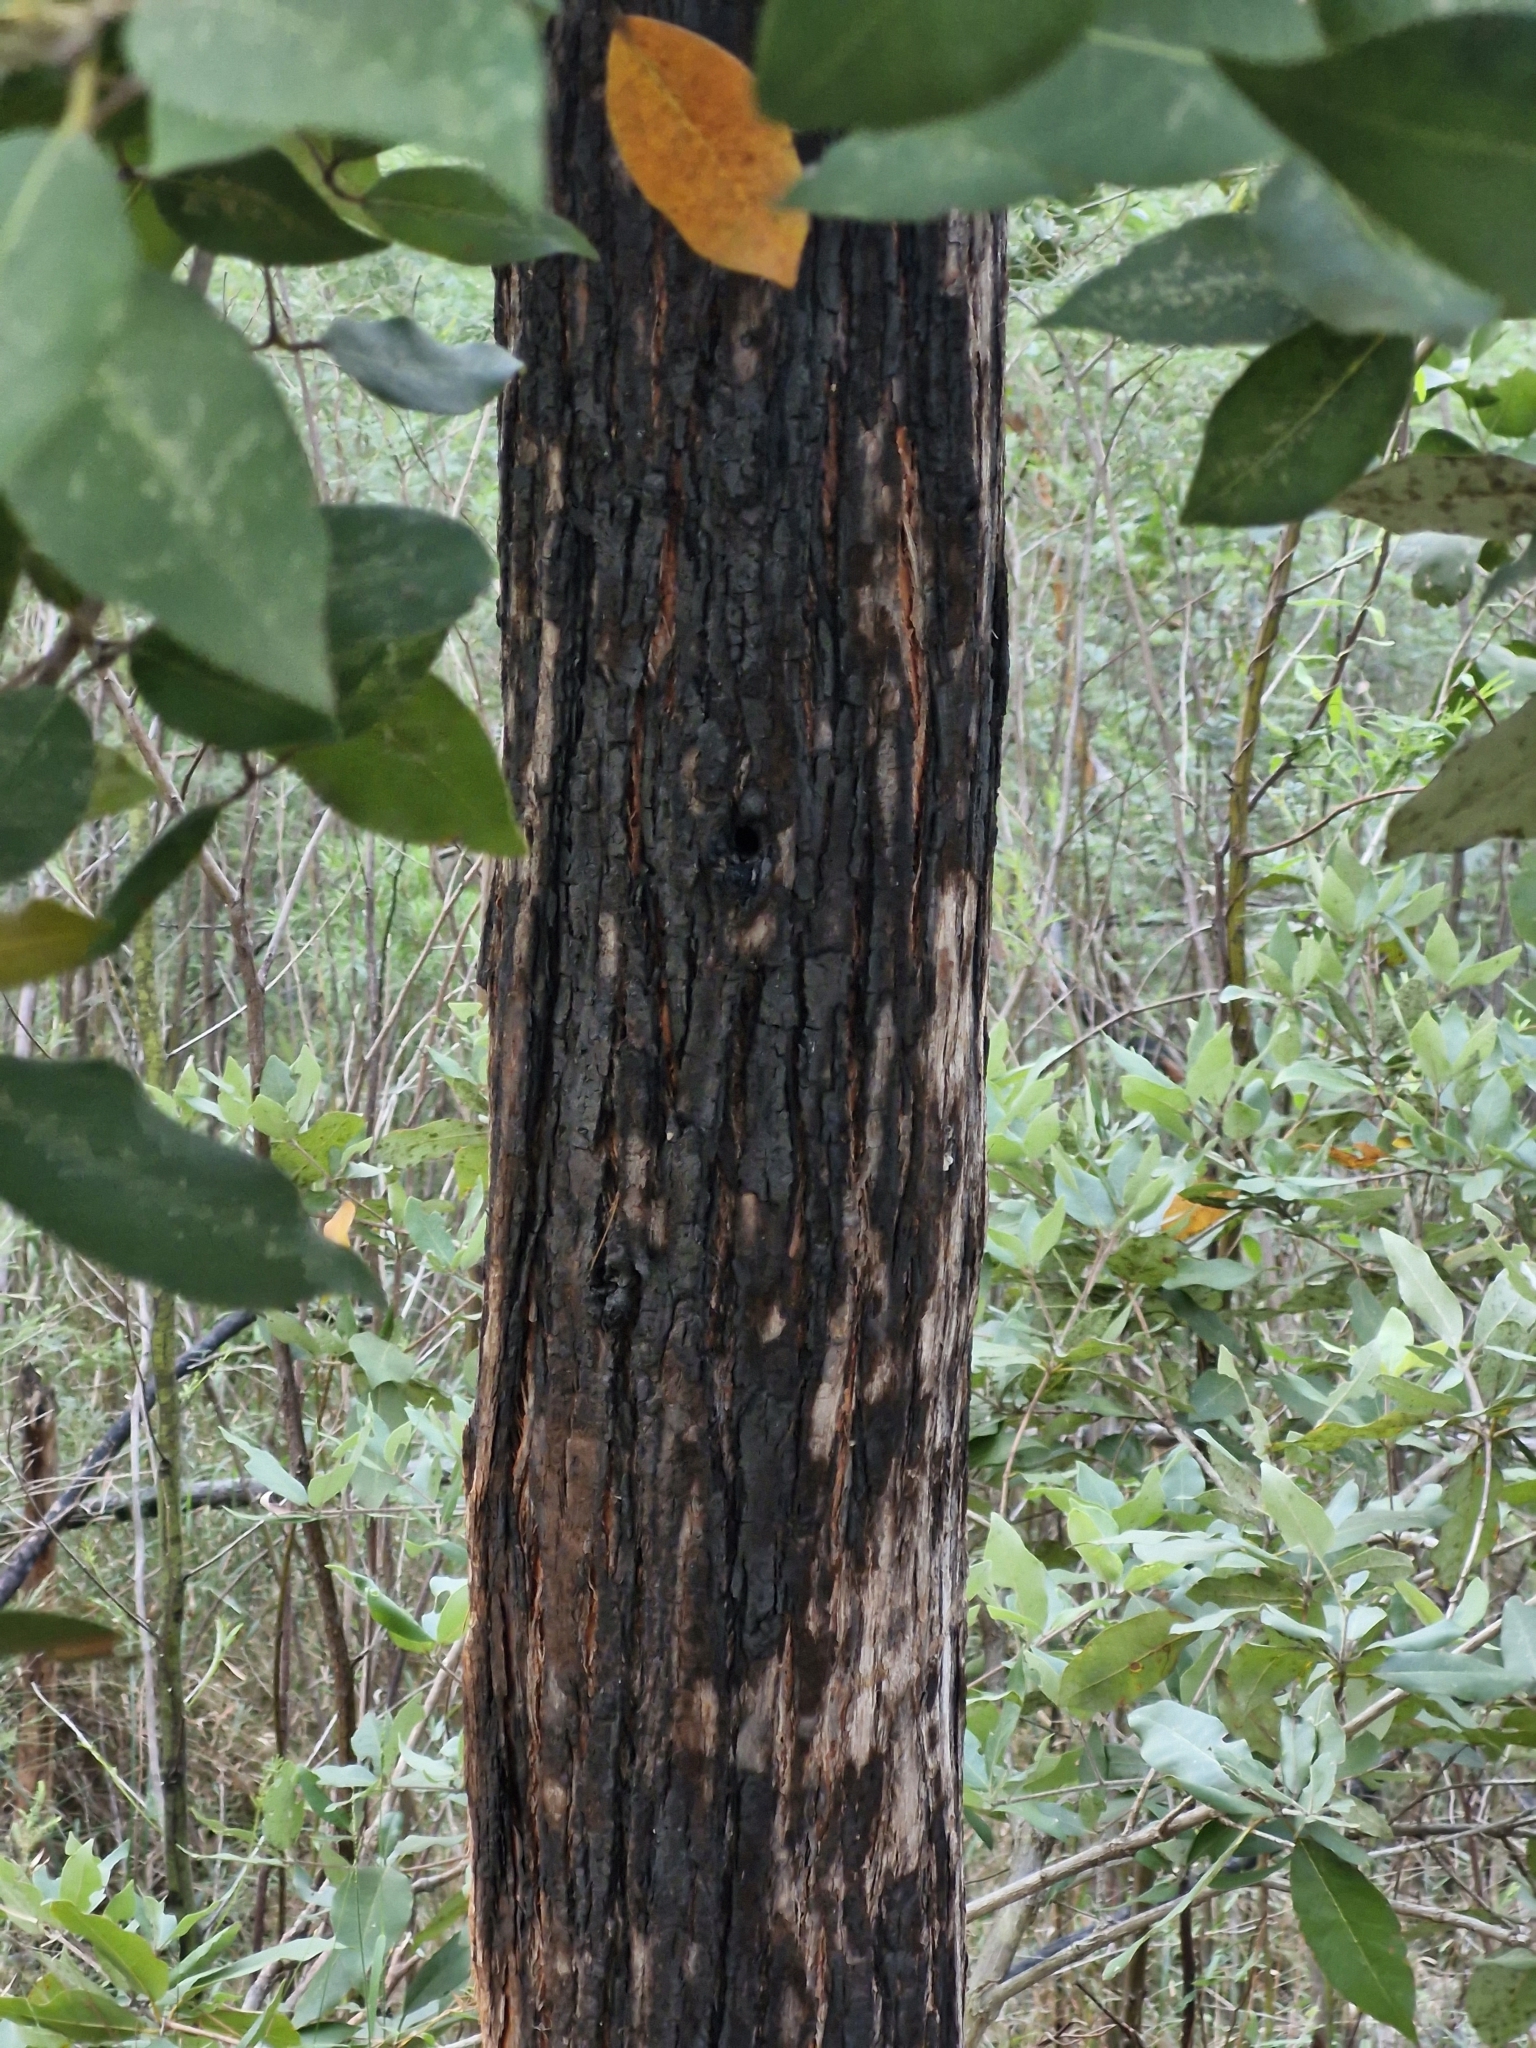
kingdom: Plantae
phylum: Tracheophyta
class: Magnoliopsida
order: Myrtales
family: Myrtaceae
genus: Syncarpia
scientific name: Syncarpia glomulifera
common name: Turpentine tree
